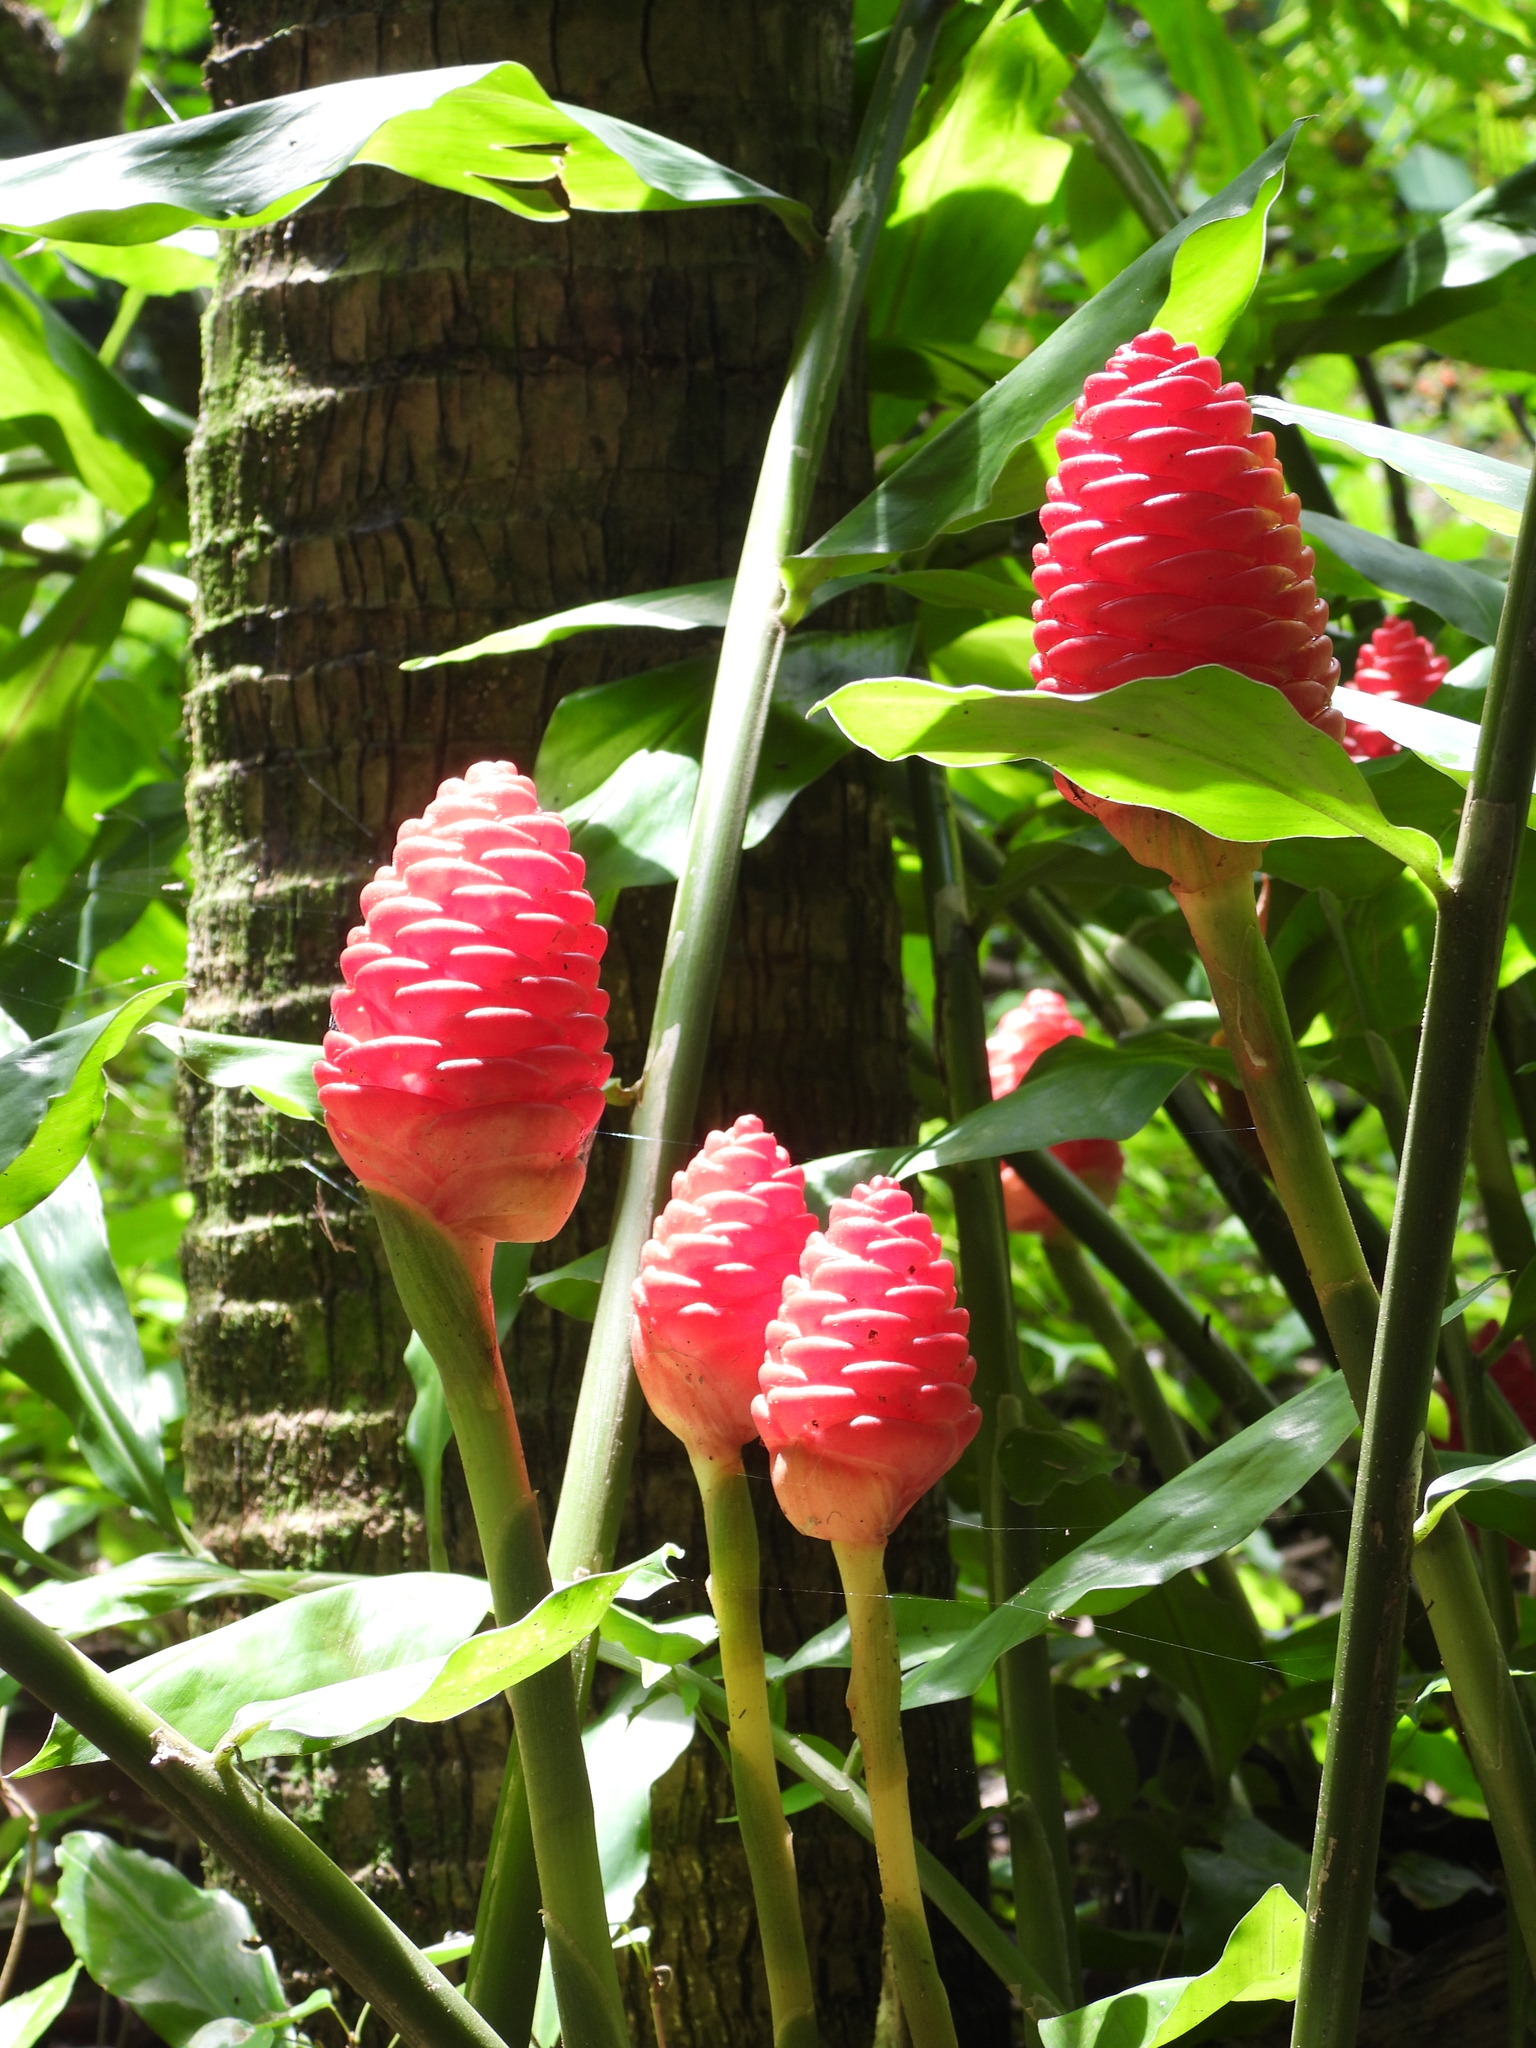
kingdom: Plantae
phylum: Tracheophyta
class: Liliopsida
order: Zingiberales
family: Zingiberaceae
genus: Zingiber
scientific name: Zingiber zerumbet
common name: Bitter ginger
